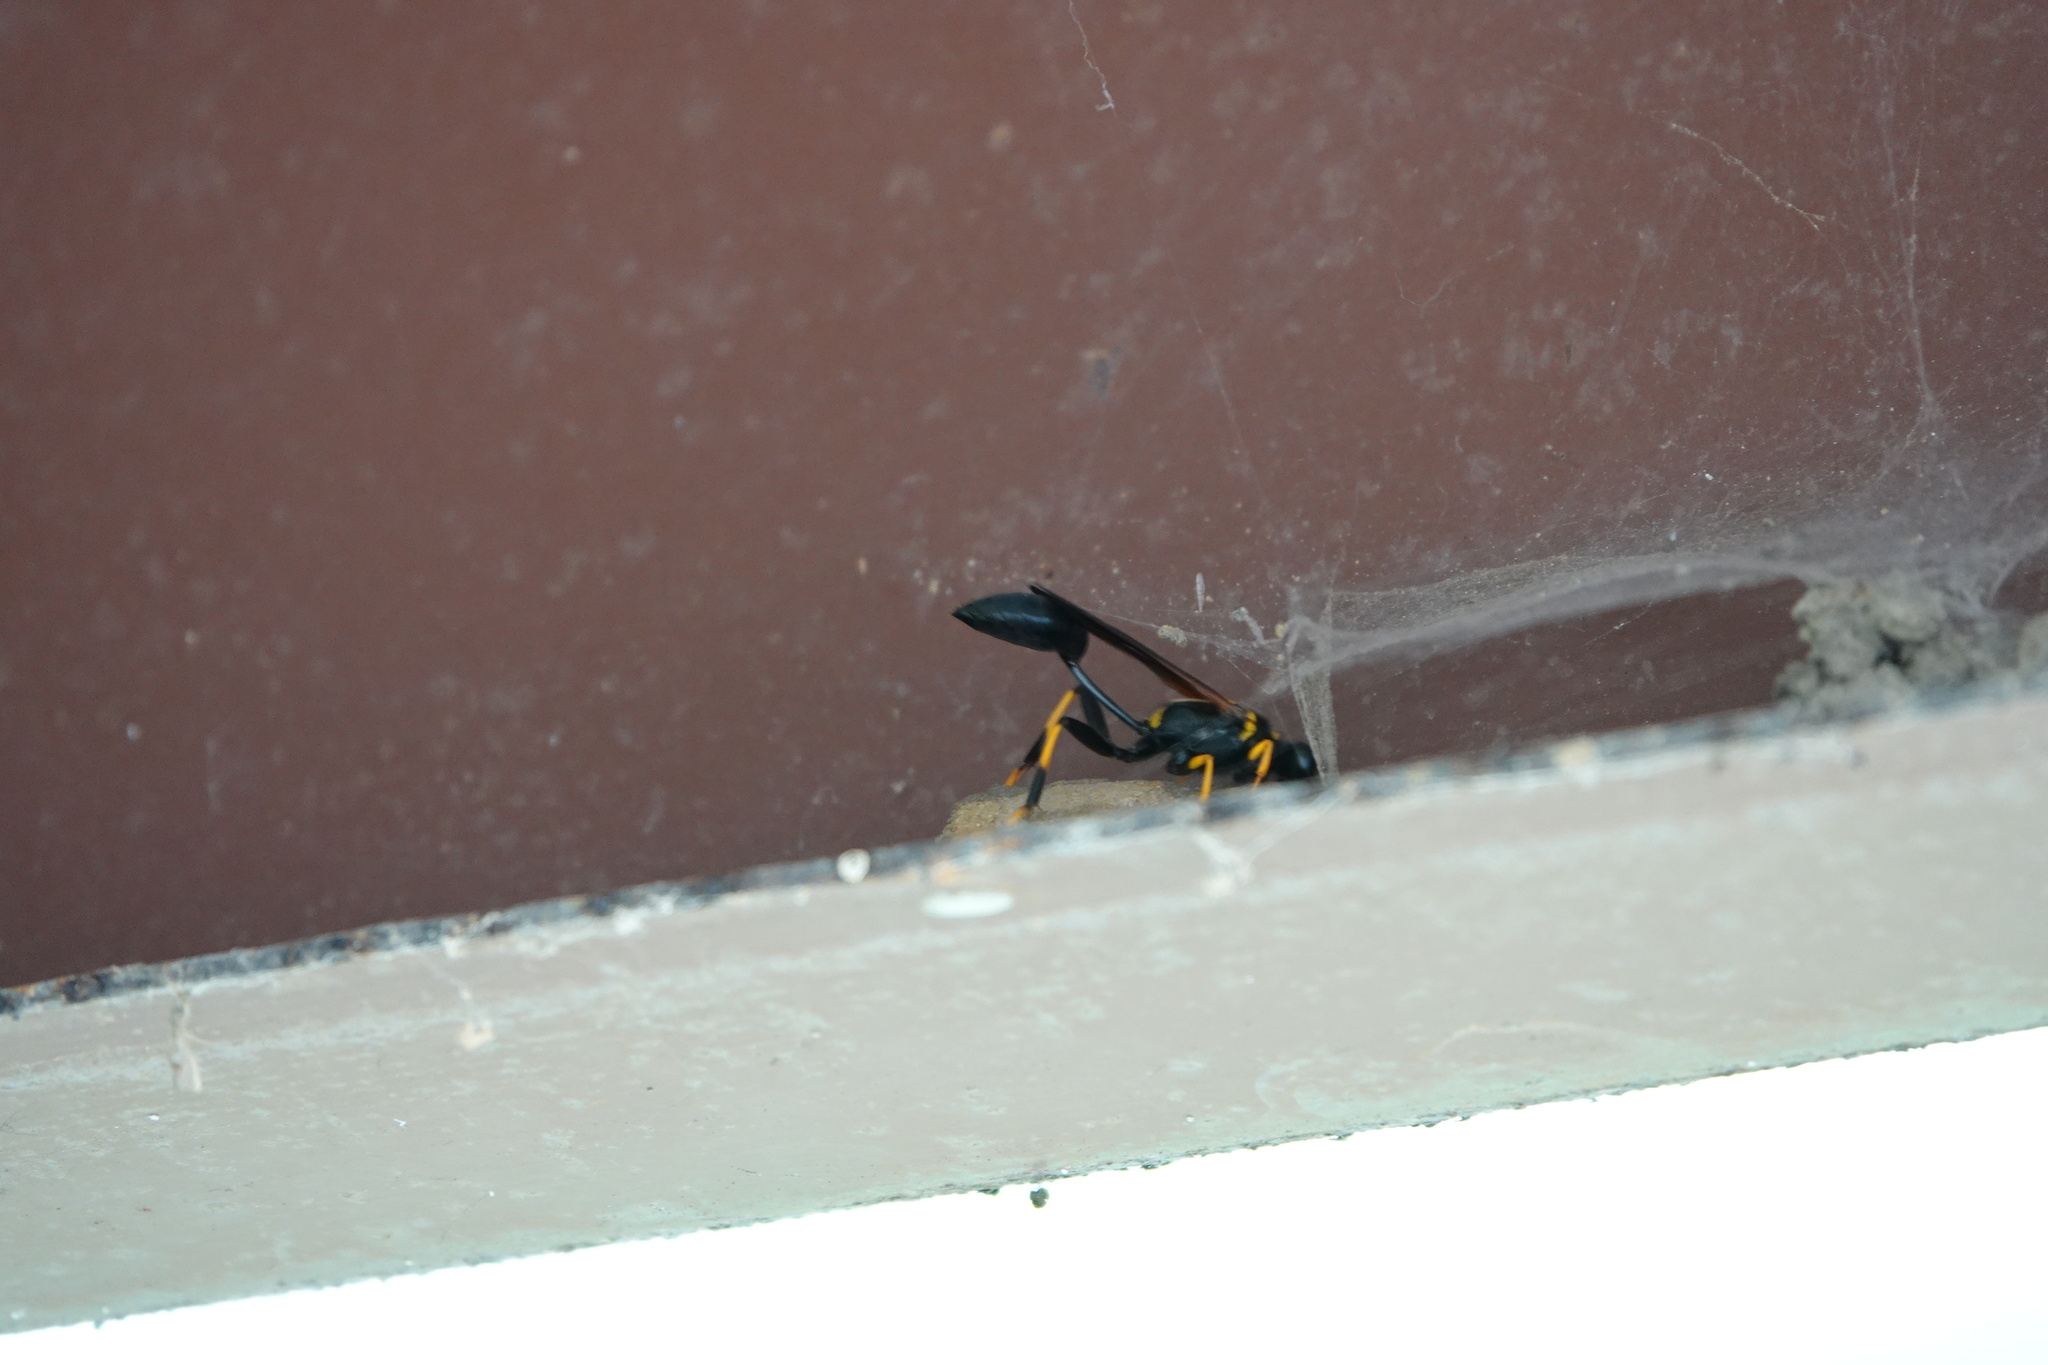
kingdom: Animalia
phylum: Arthropoda
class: Insecta
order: Hymenoptera
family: Sphecidae
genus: Sceliphron
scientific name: Sceliphron caementarium
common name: Mud dauber
